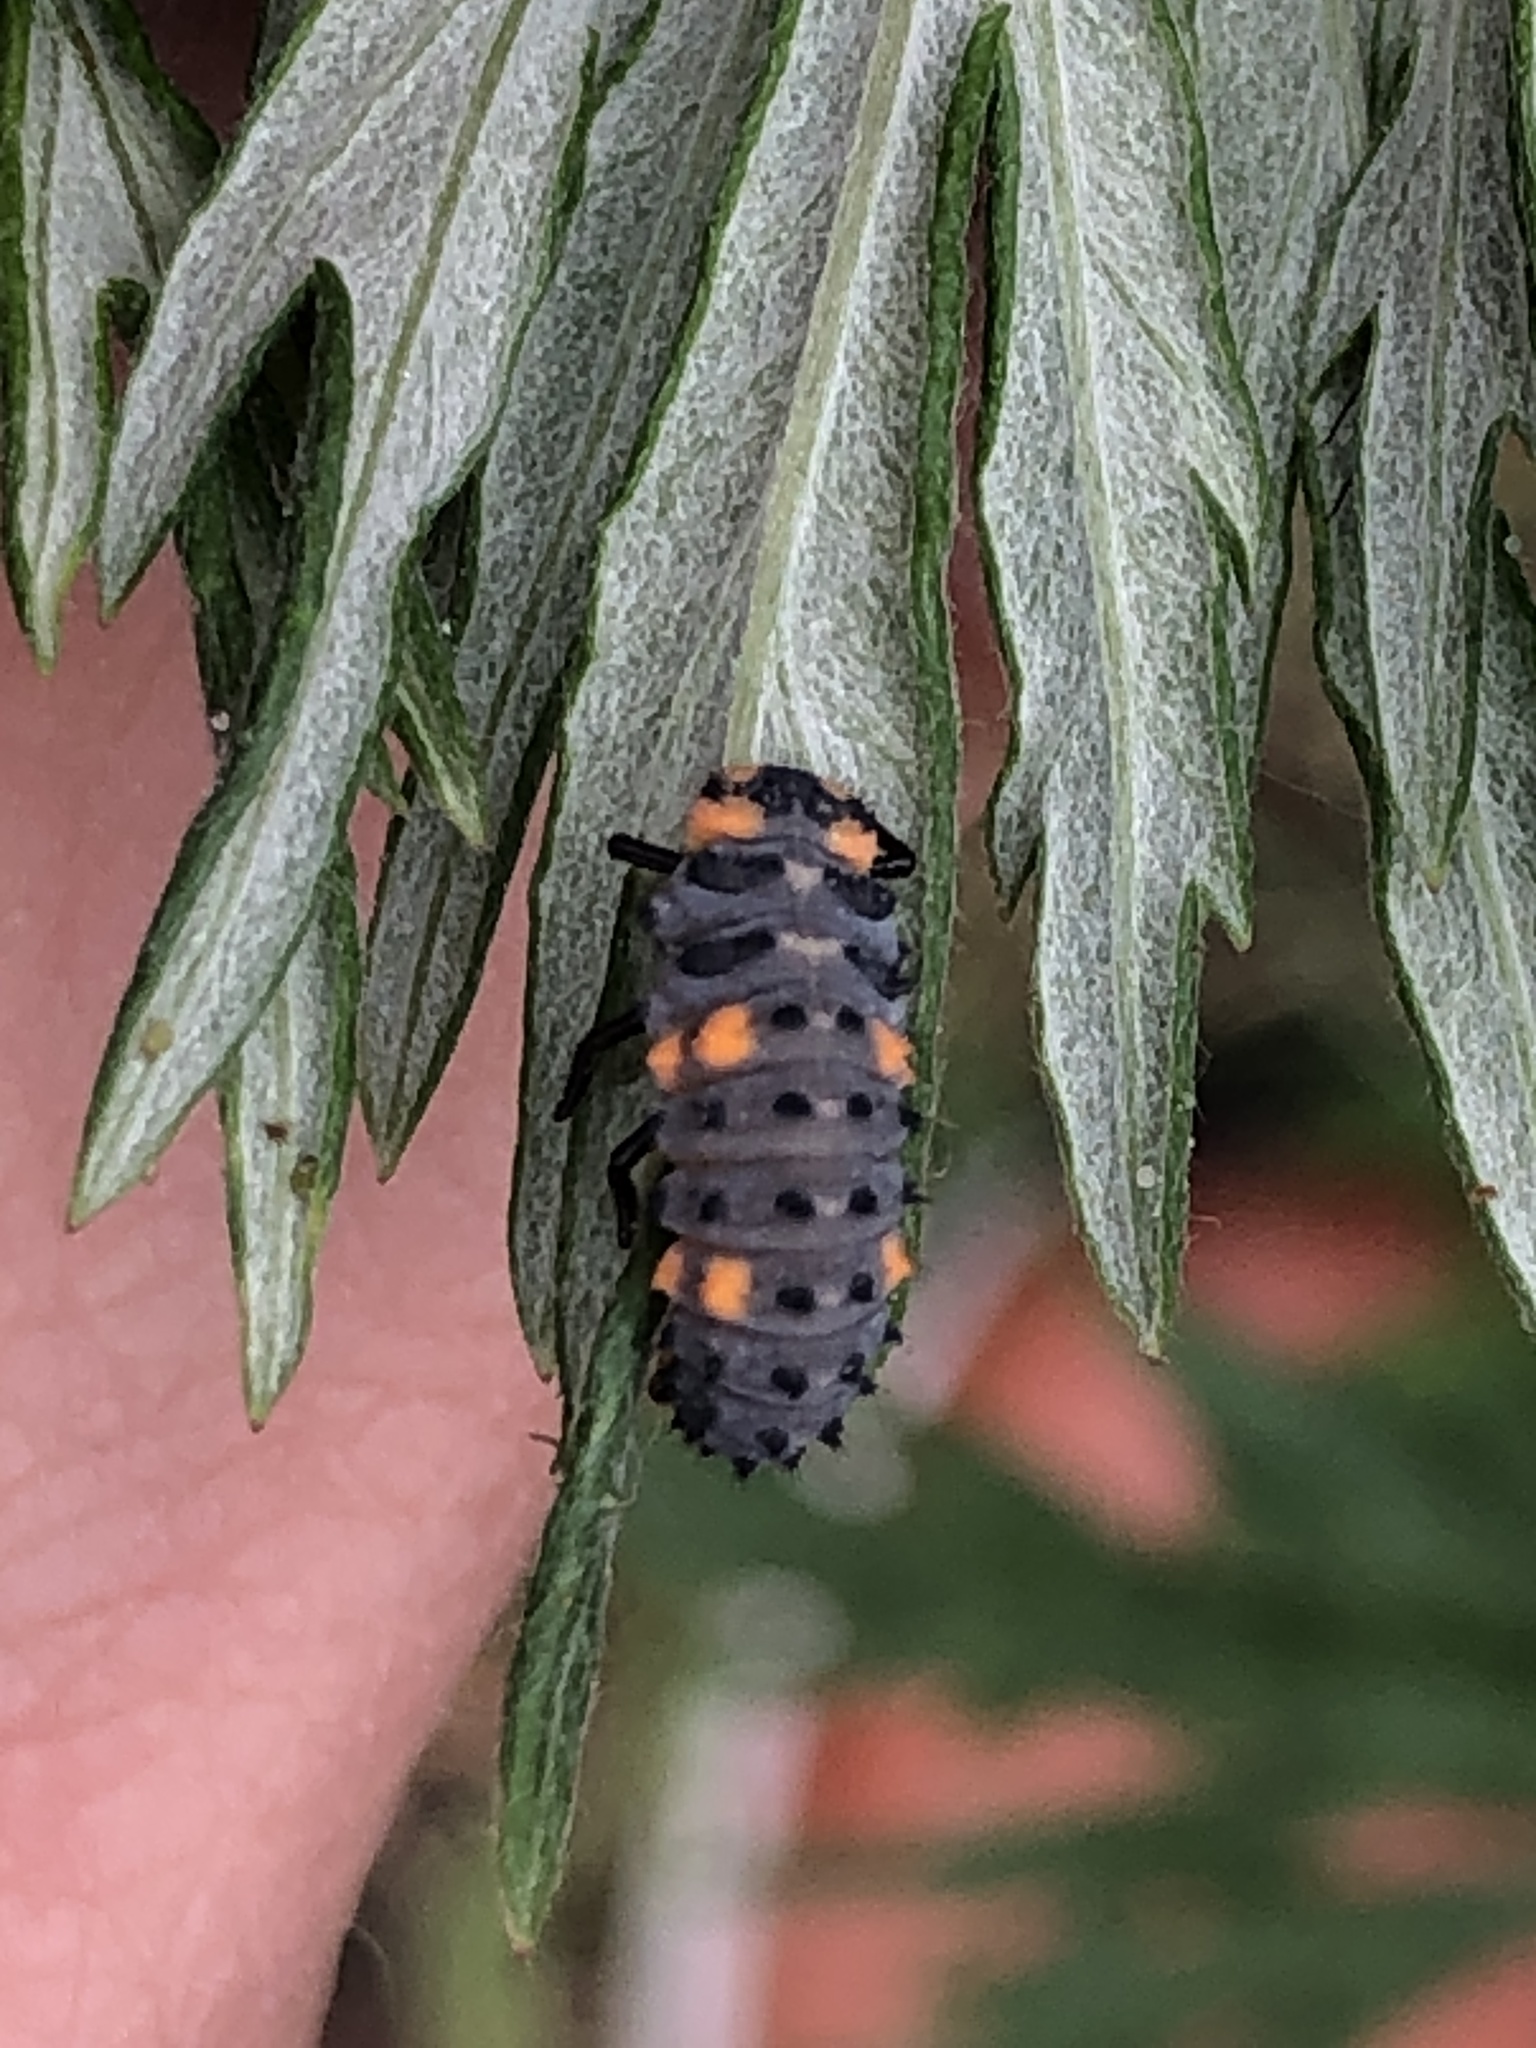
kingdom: Animalia
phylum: Arthropoda
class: Insecta
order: Coleoptera
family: Coccinellidae
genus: Coccinella
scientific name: Coccinella septempunctata
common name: Sevenspotted lady beetle
